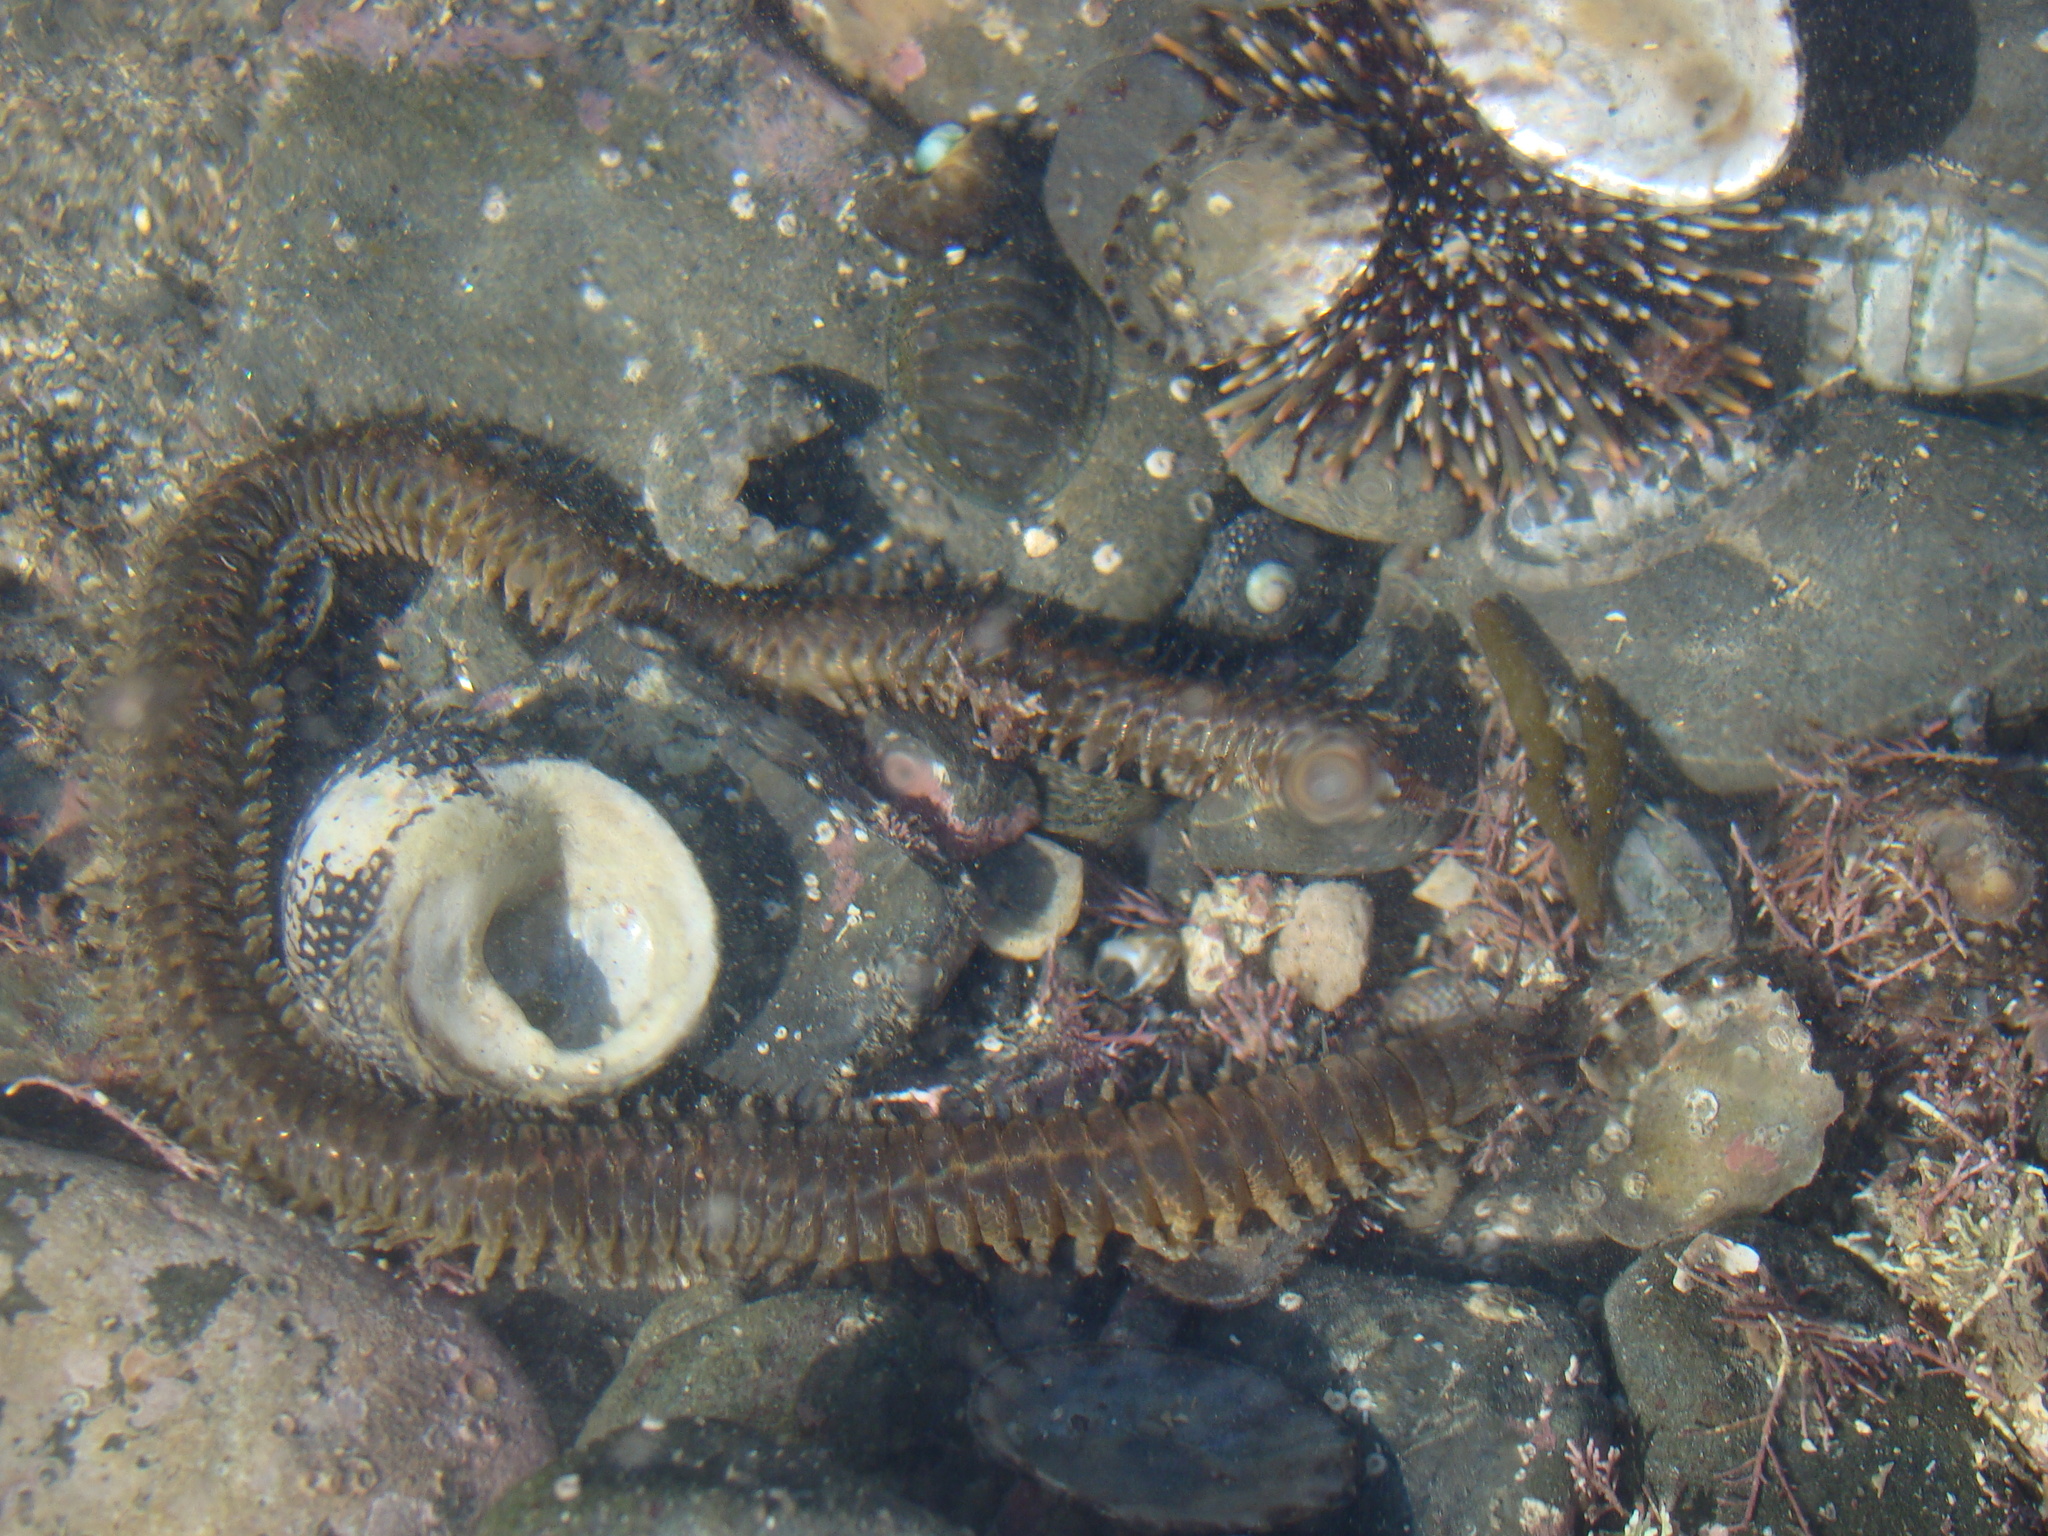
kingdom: Animalia
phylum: Annelida
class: Polychaeta
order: Phyllodocida
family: Nereididae
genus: Perinereis
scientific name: Perinereis amblyodonta
